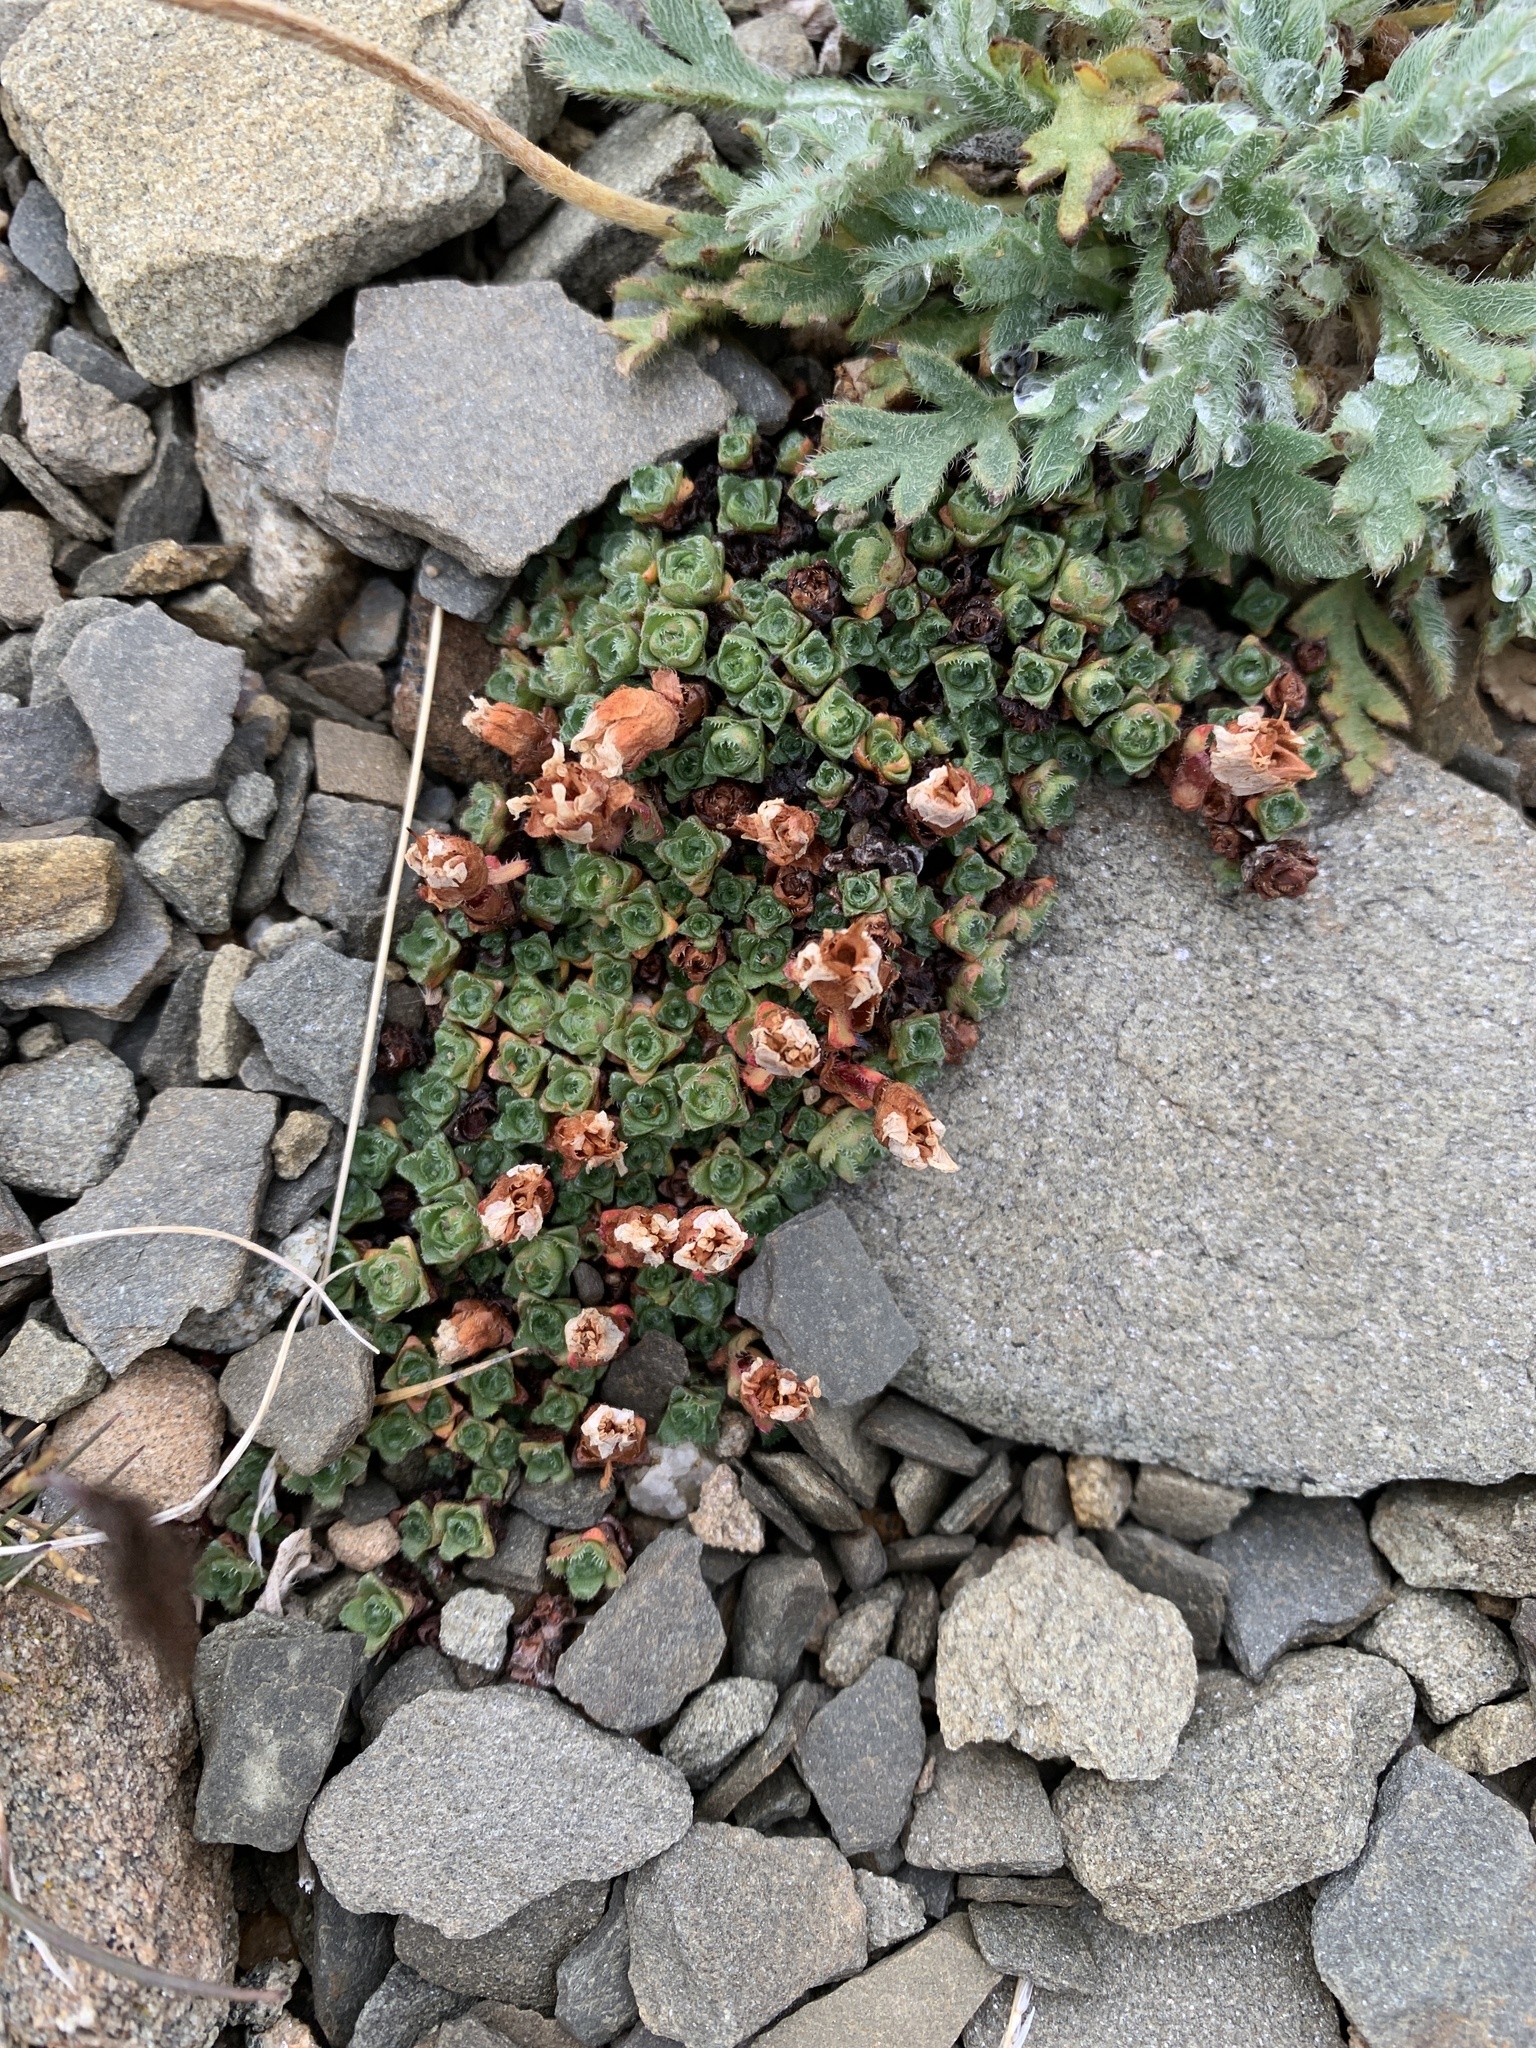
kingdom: Plantae
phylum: Tracheophyta
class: Magnoliopsida
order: Saxifragales
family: Saxifragaceae
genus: Saxifraga
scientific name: Saxifraga oppositifolia
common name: Purple saxifrage
